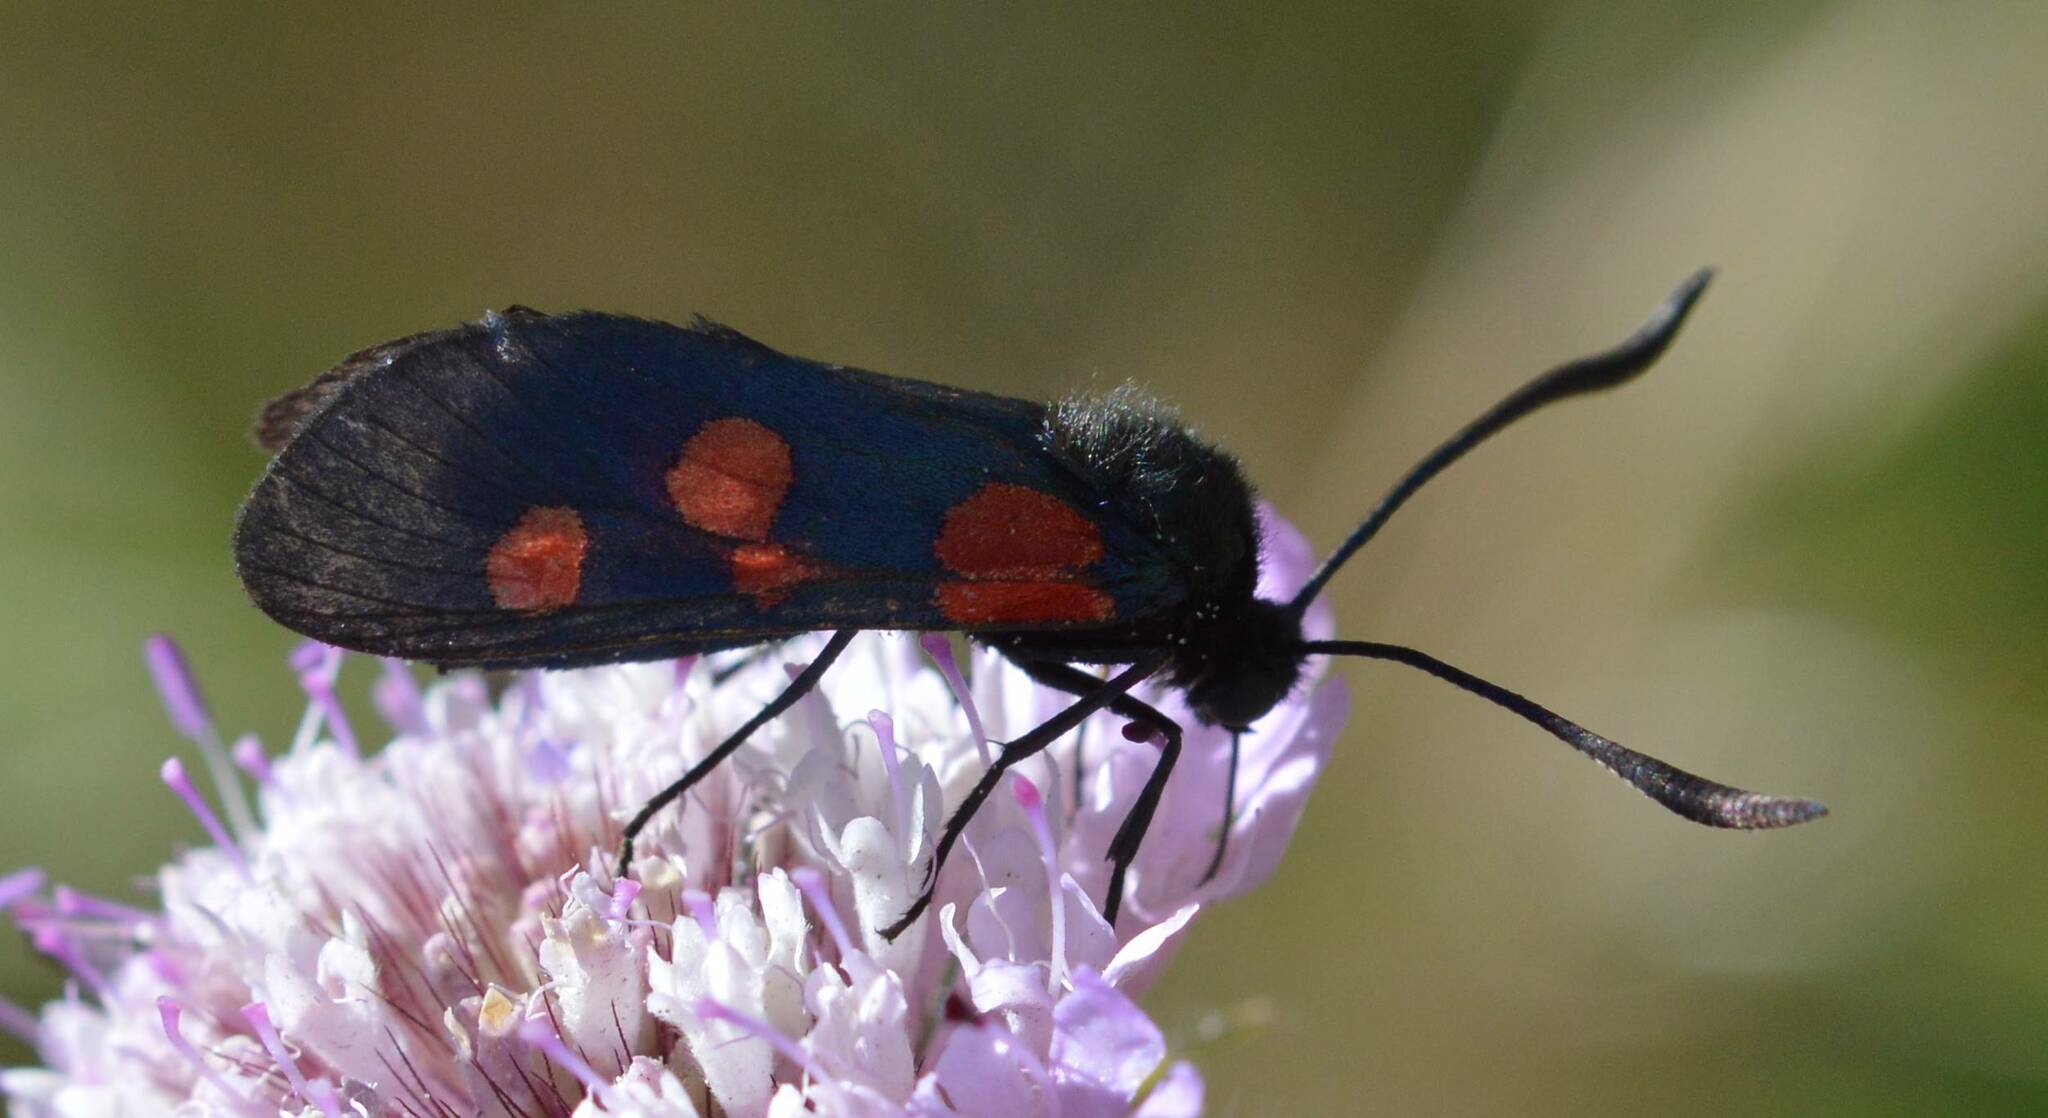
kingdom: Animalia
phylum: Arthropoda
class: Insecta
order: Lepidoptera
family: Zygaenidae
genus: Zygaena
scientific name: Zygaena trifolii
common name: Five-spot burnet
